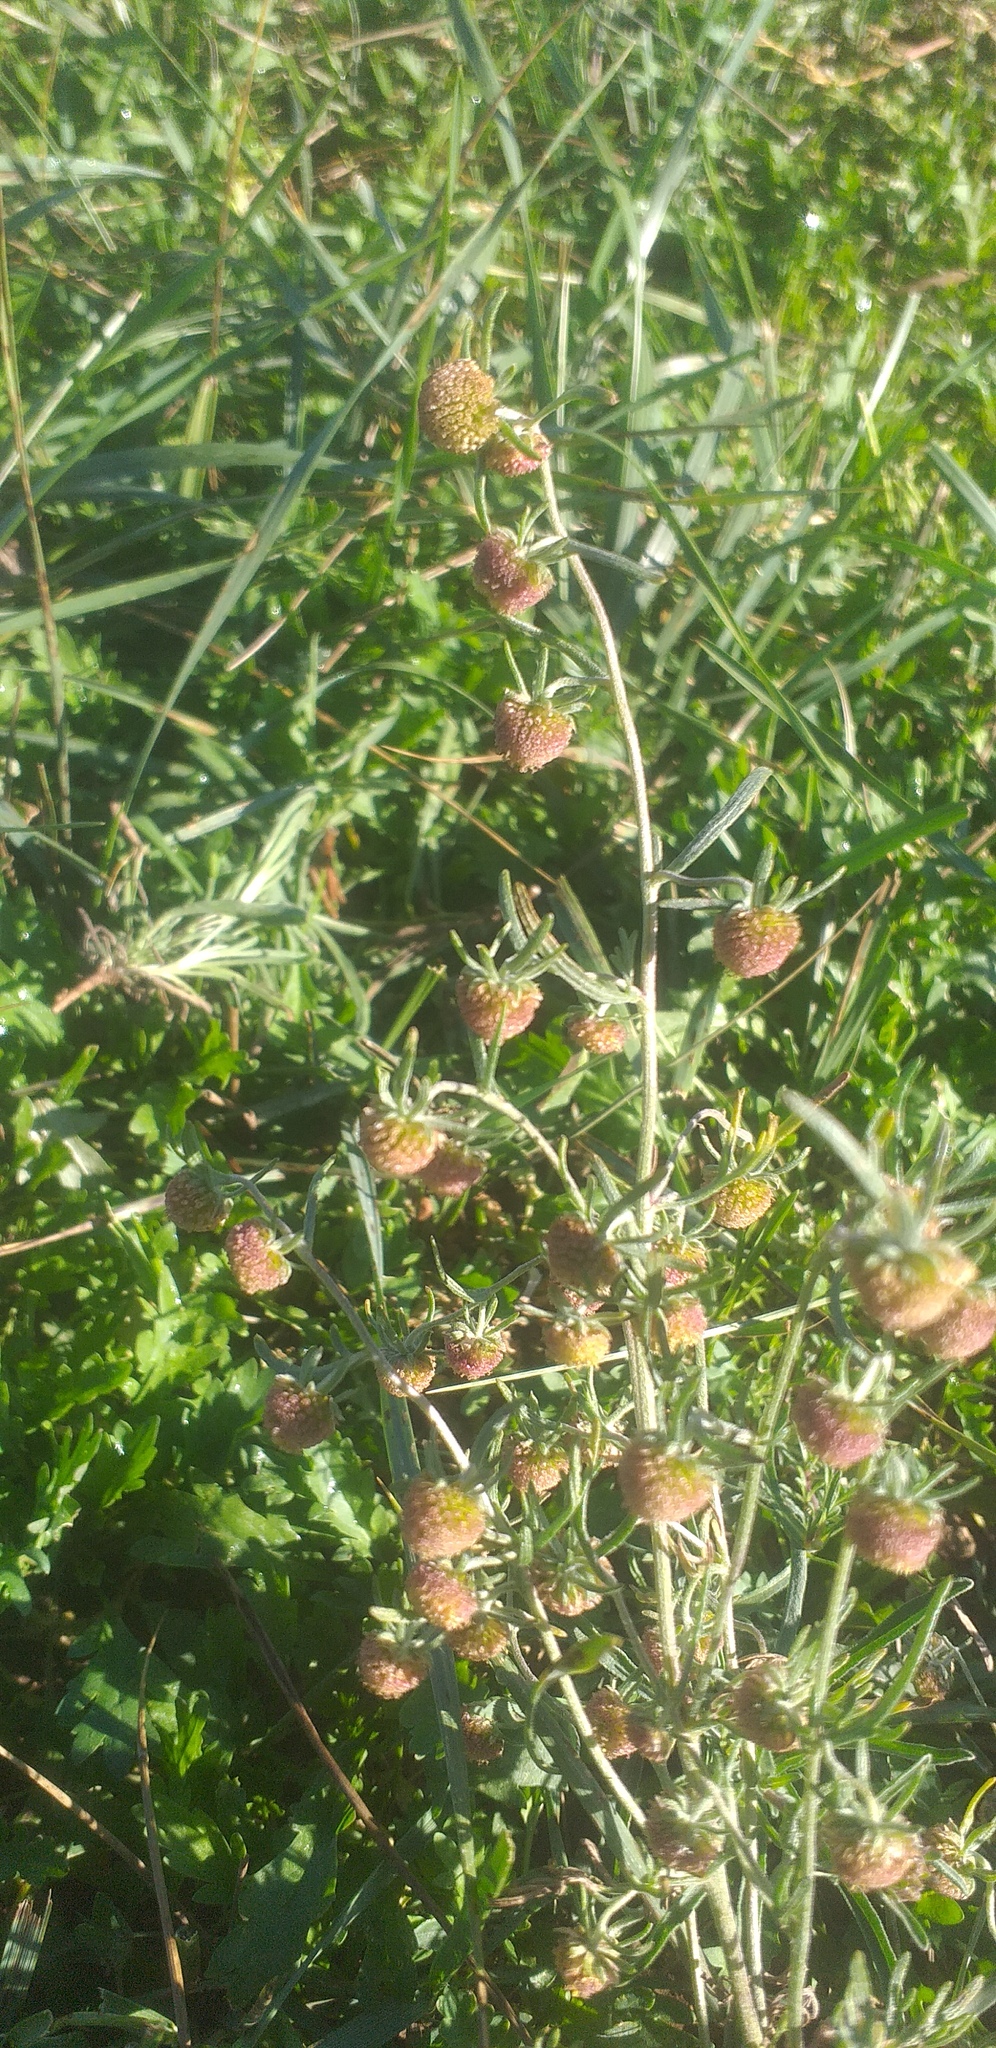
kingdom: Plantae
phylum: Tracheophyta
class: Magnoliopsida
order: Asterales
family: Asteraceae
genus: Artemisia
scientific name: Artemisia macrocephala
